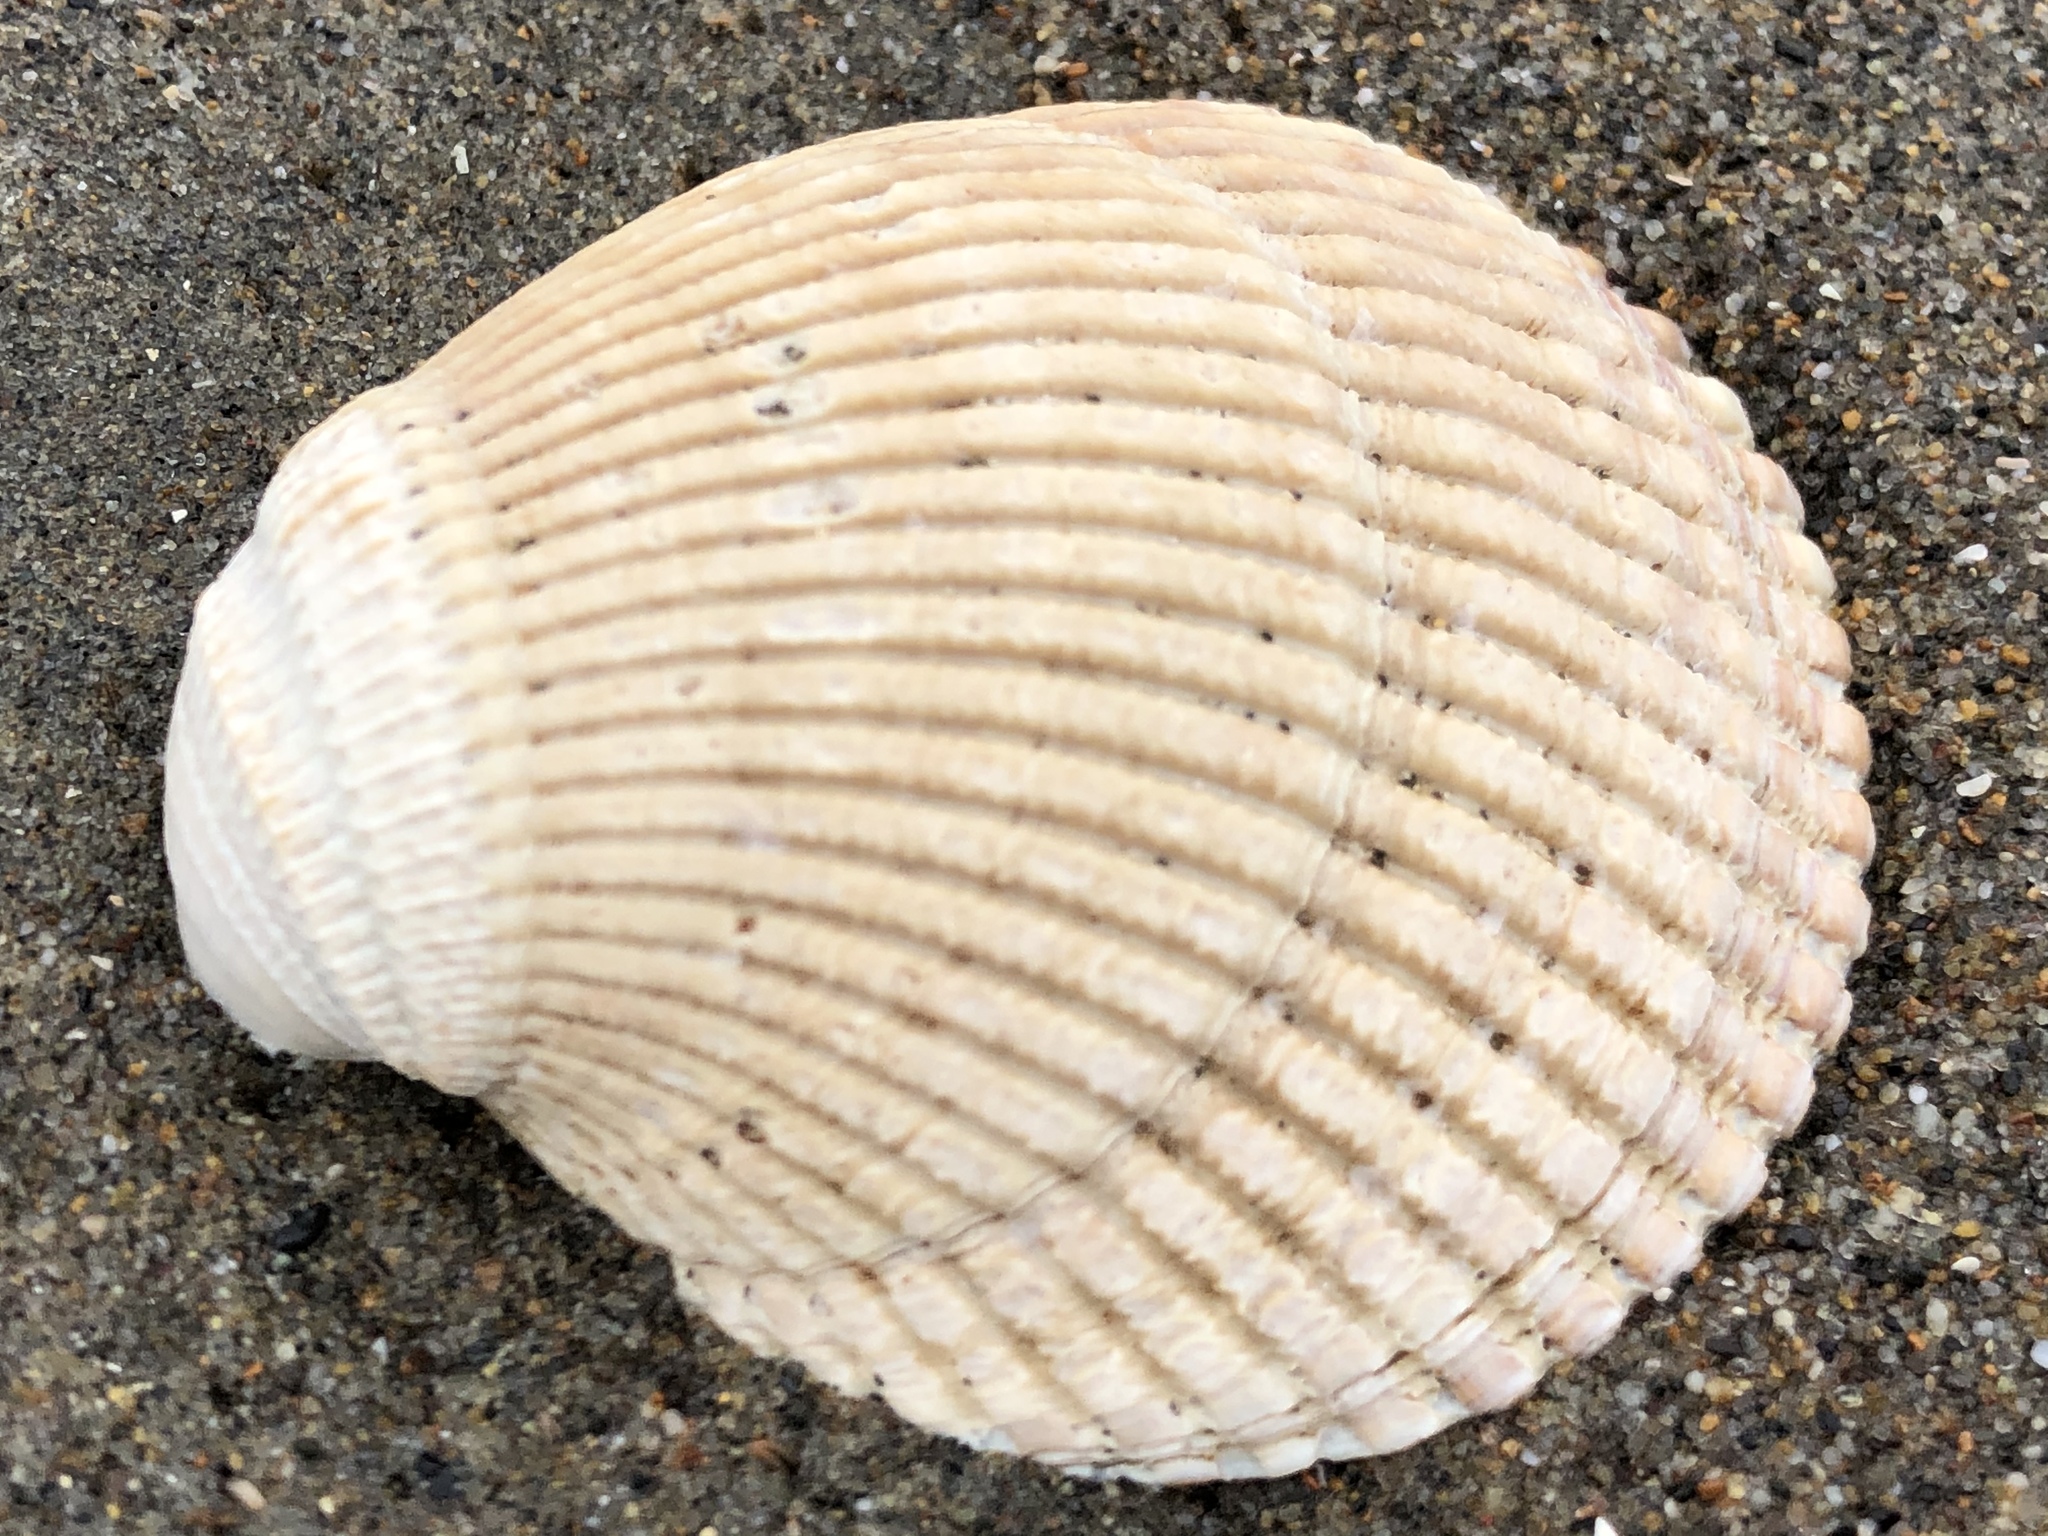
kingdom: Animalia
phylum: Mollusca
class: Bivalvia
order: Cardiida
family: Cardiidae
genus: Clinocardium
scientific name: Clinocardium nuttallii
